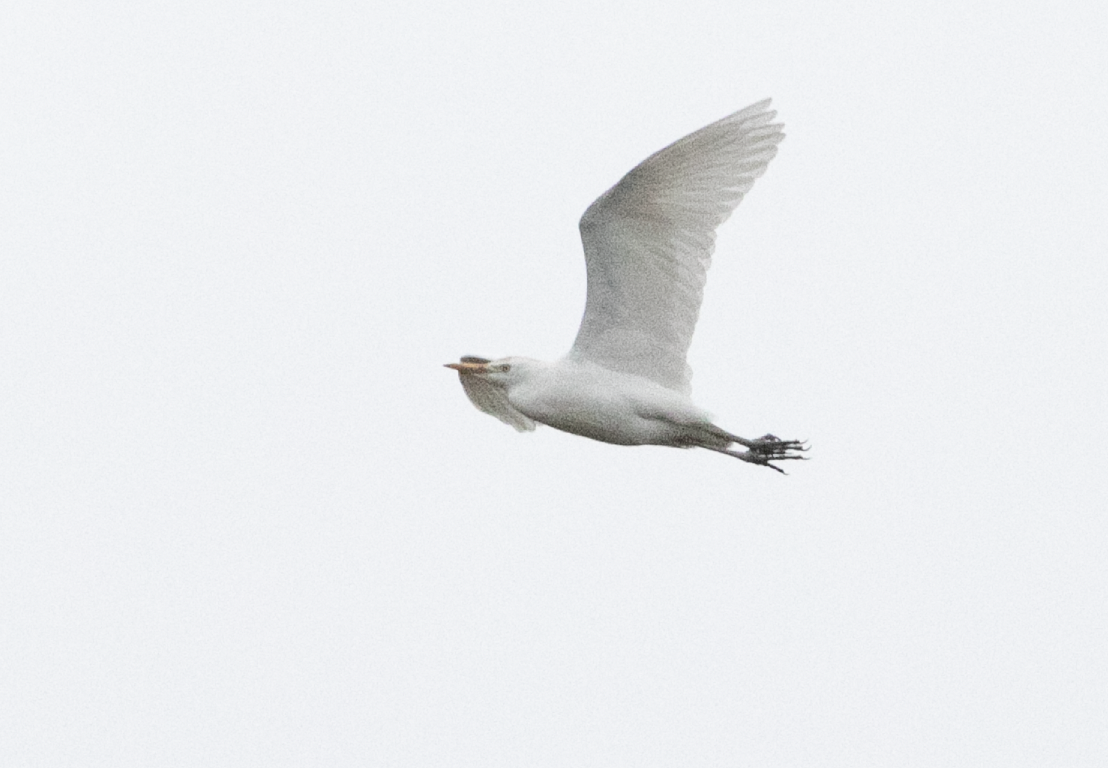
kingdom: Animalia
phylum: Chordata
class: Aves
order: Pelecaniformes
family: Ardeidae
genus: Bubulcus
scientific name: Bubulcus ibis
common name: Cattle egret
